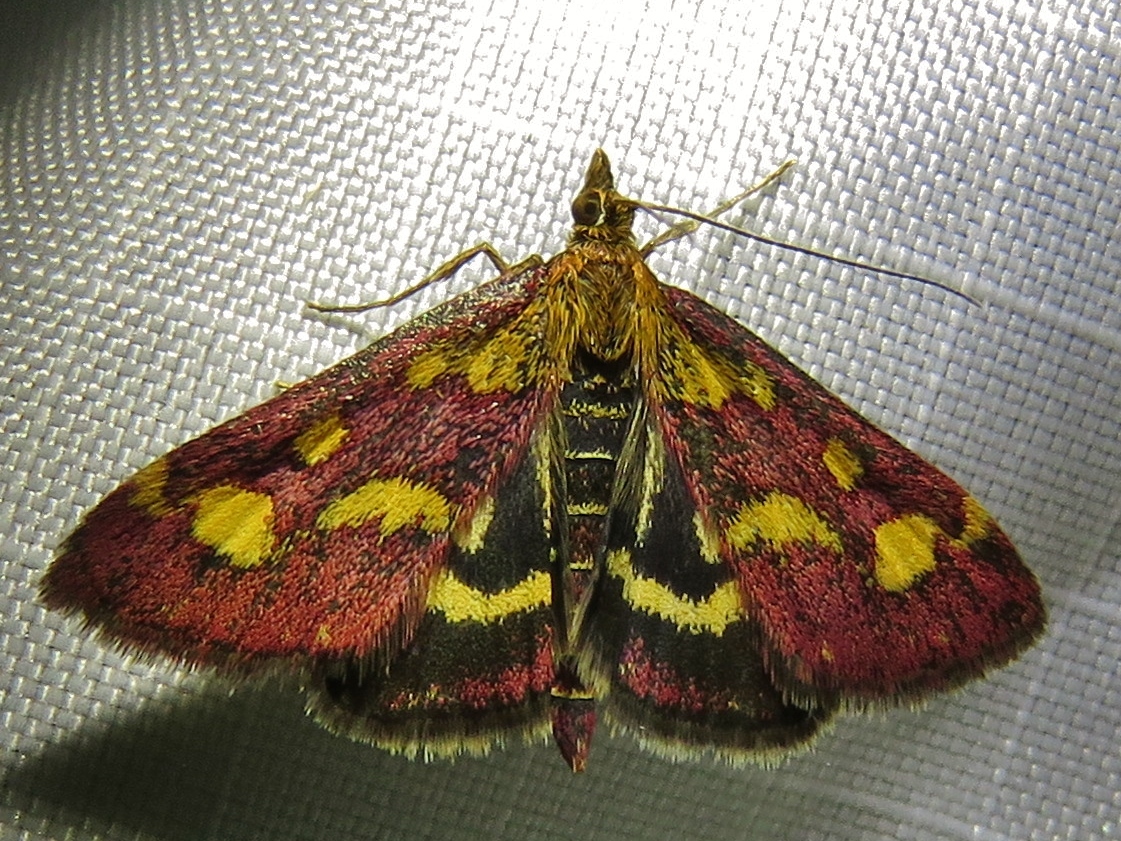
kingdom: Animalia
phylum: Arthropoda
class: Insecta
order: Lepidoptera
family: Crambidae
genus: Pyrausta
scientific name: Pyrausta purpuralis
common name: Common purple & gold
